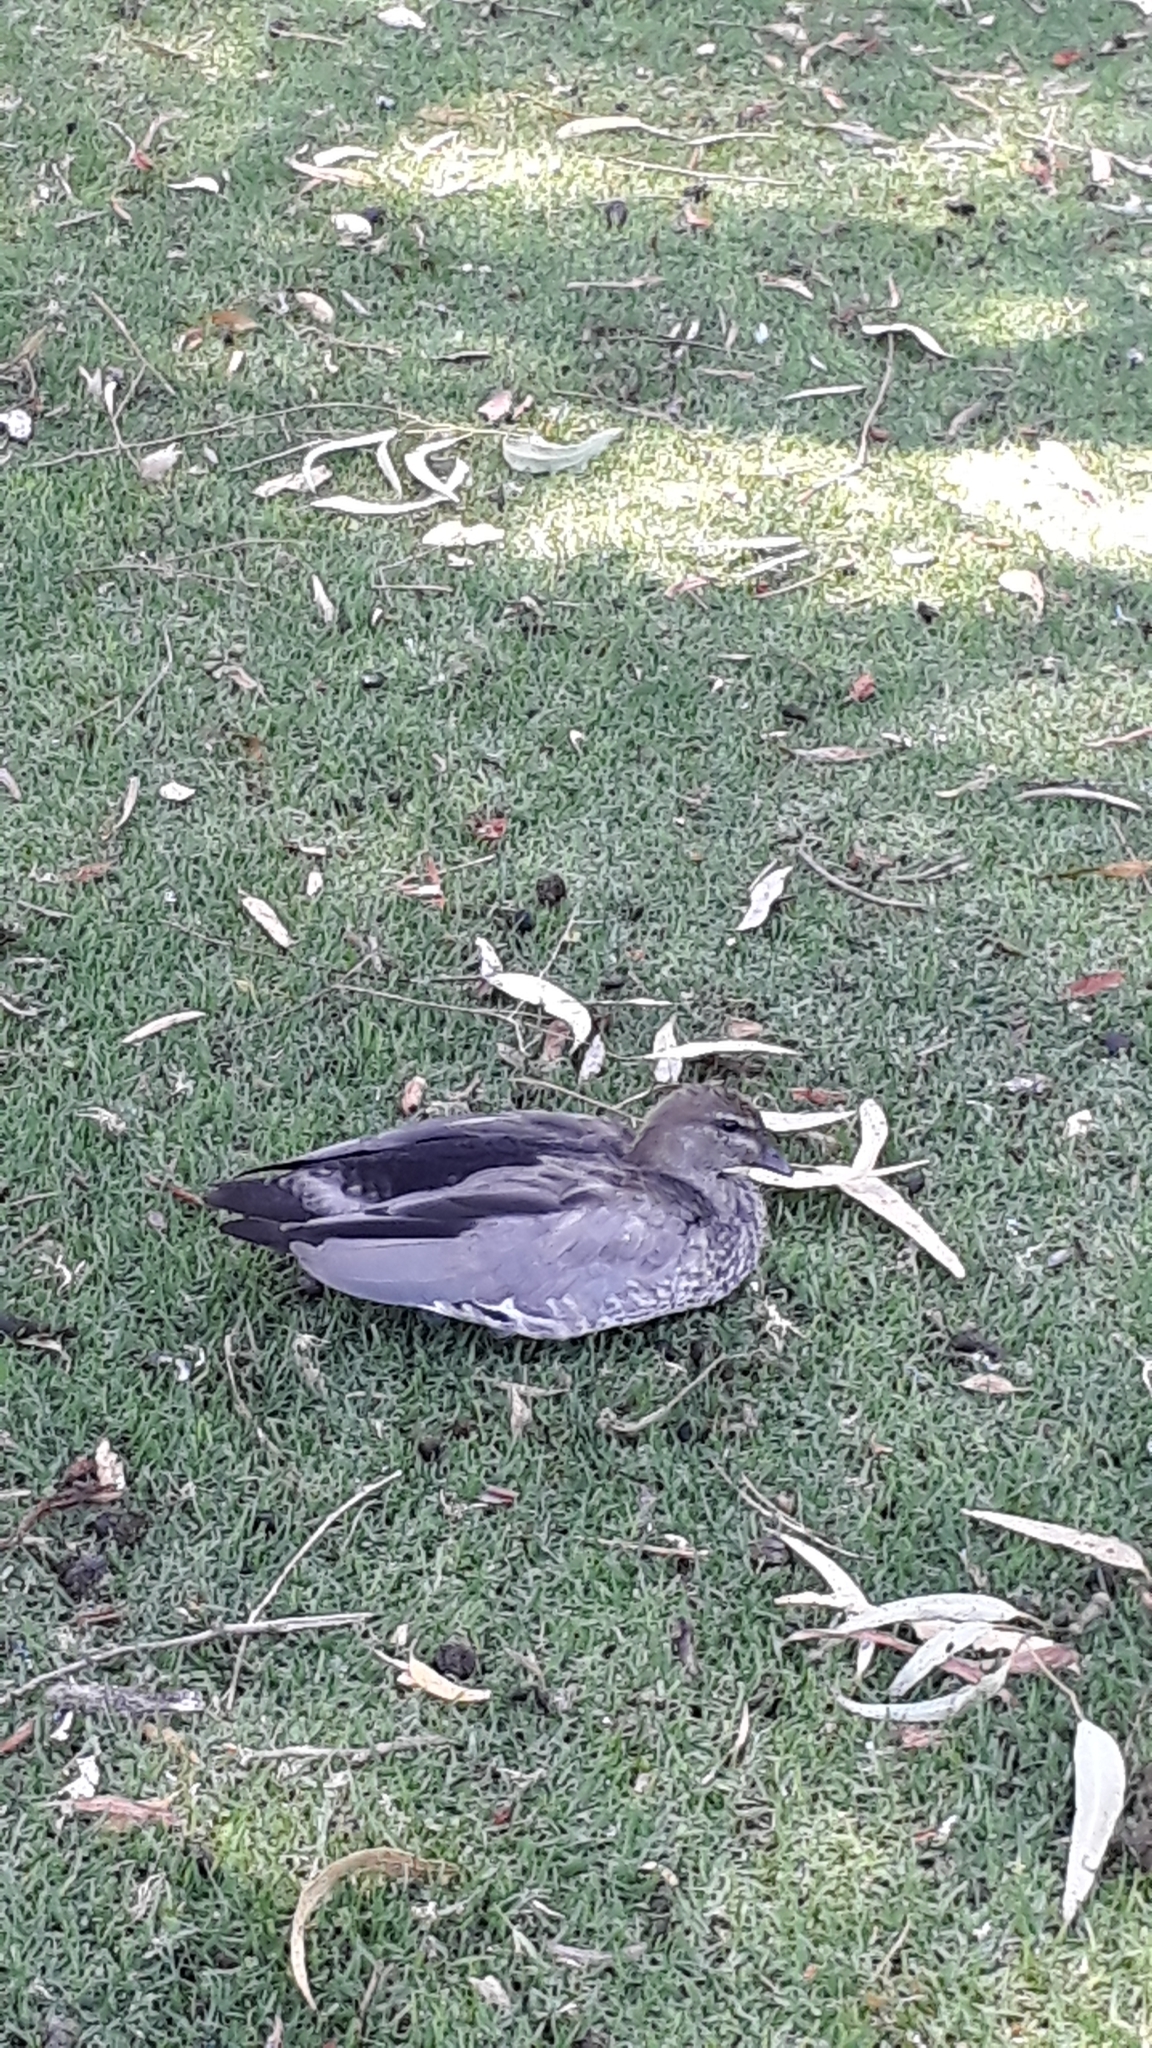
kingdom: Animalia
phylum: Chordata
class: Aves
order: Anseriformes
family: Anatidae
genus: Chenonetta
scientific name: Chenonetta jubata
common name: Maned duck
